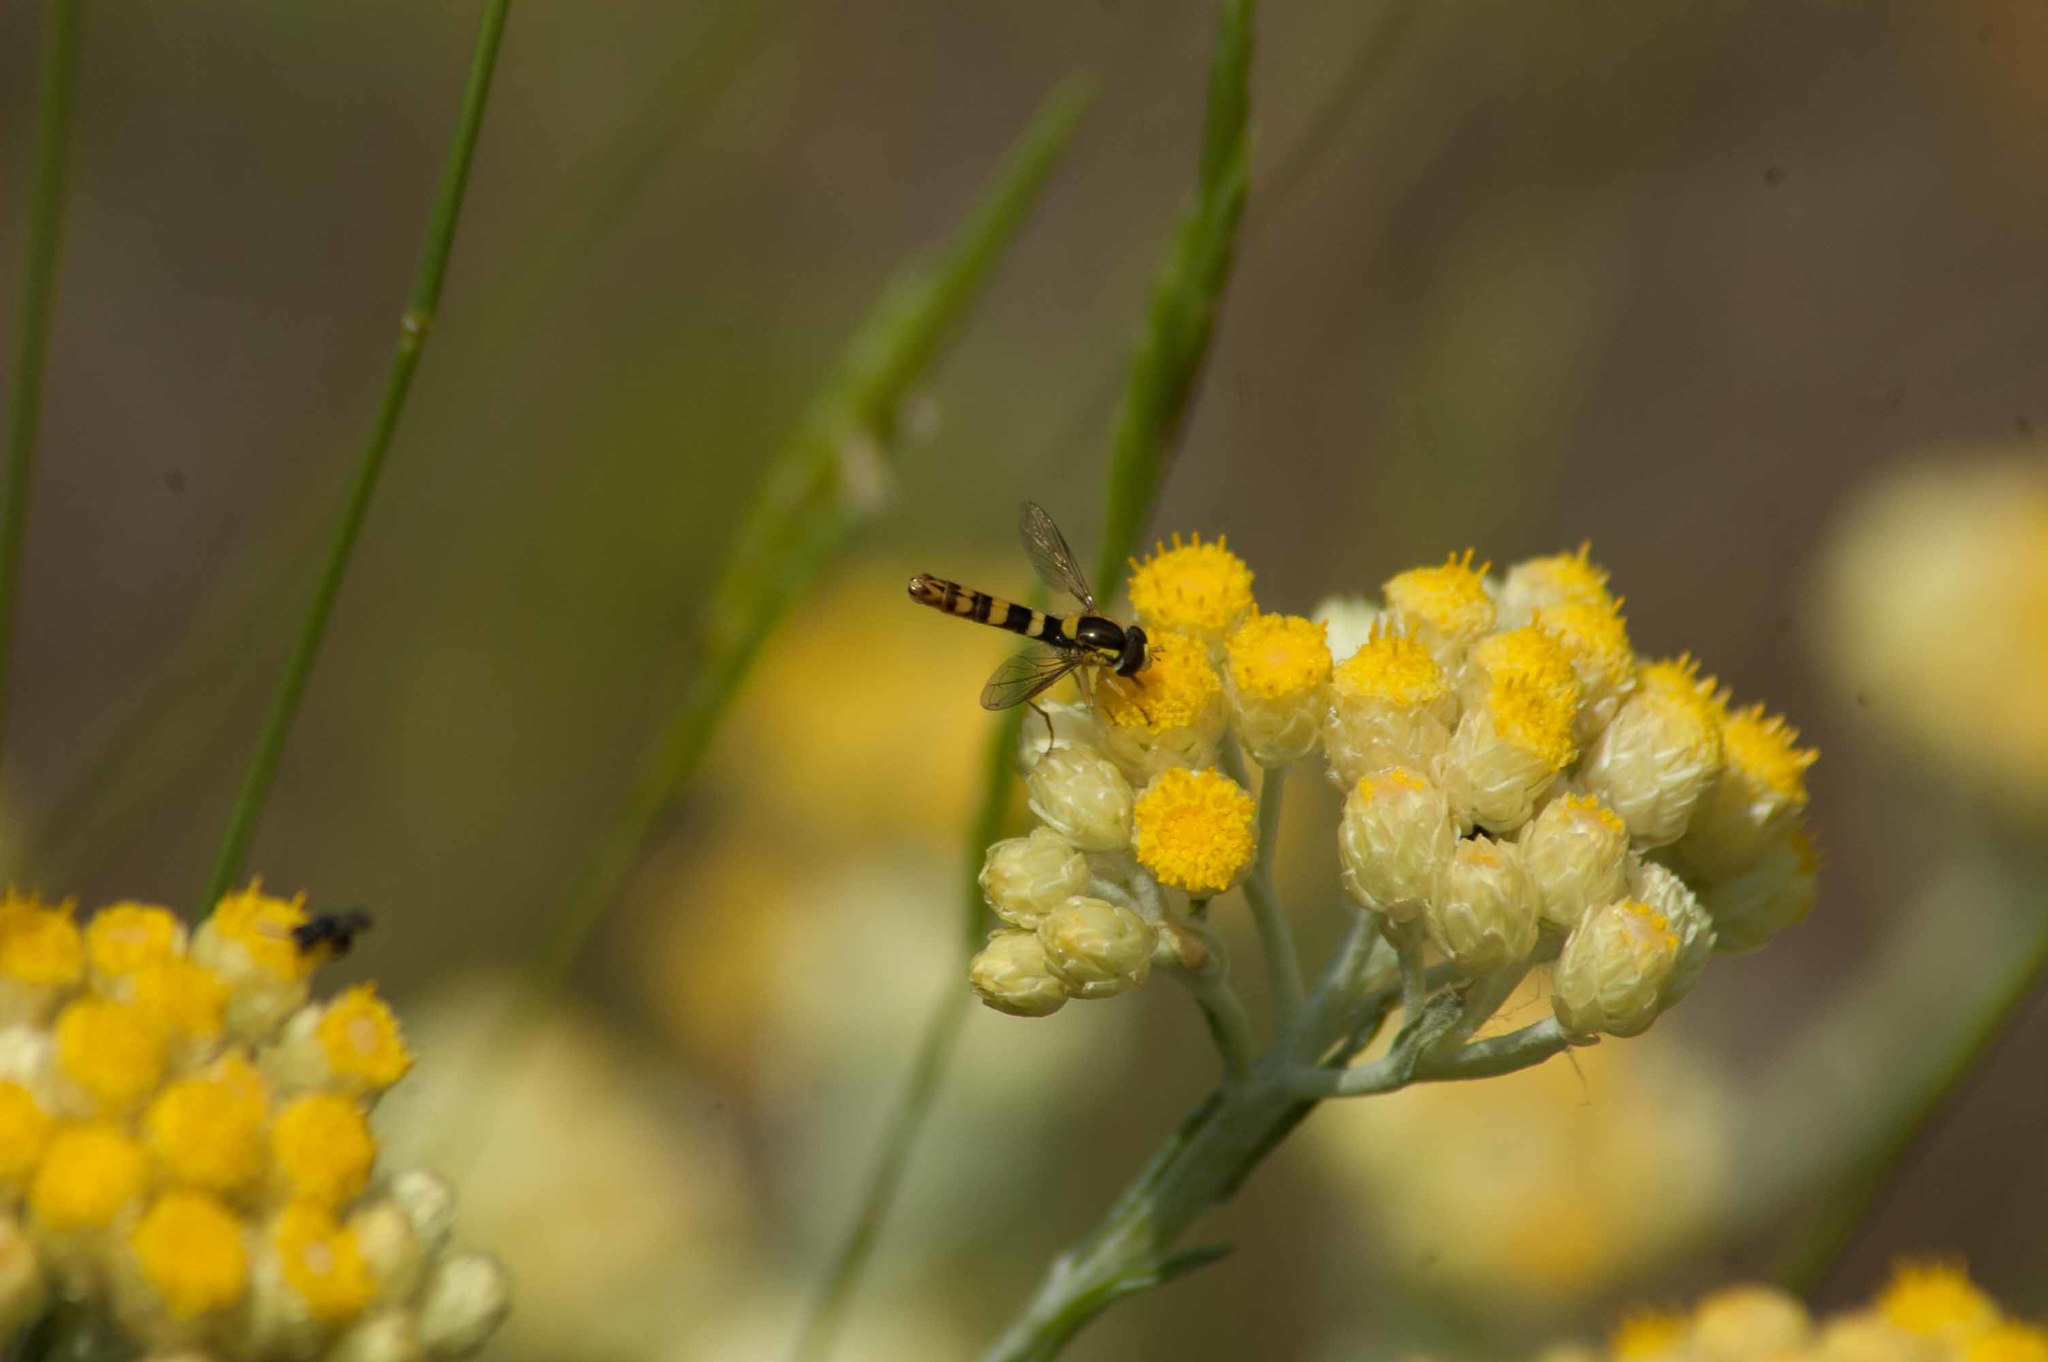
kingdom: Animalia
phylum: Arthropoda
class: Insecta
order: Diptera
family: Syrphidae
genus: Sphaerophoria
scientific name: Sphaerophoria scripta
